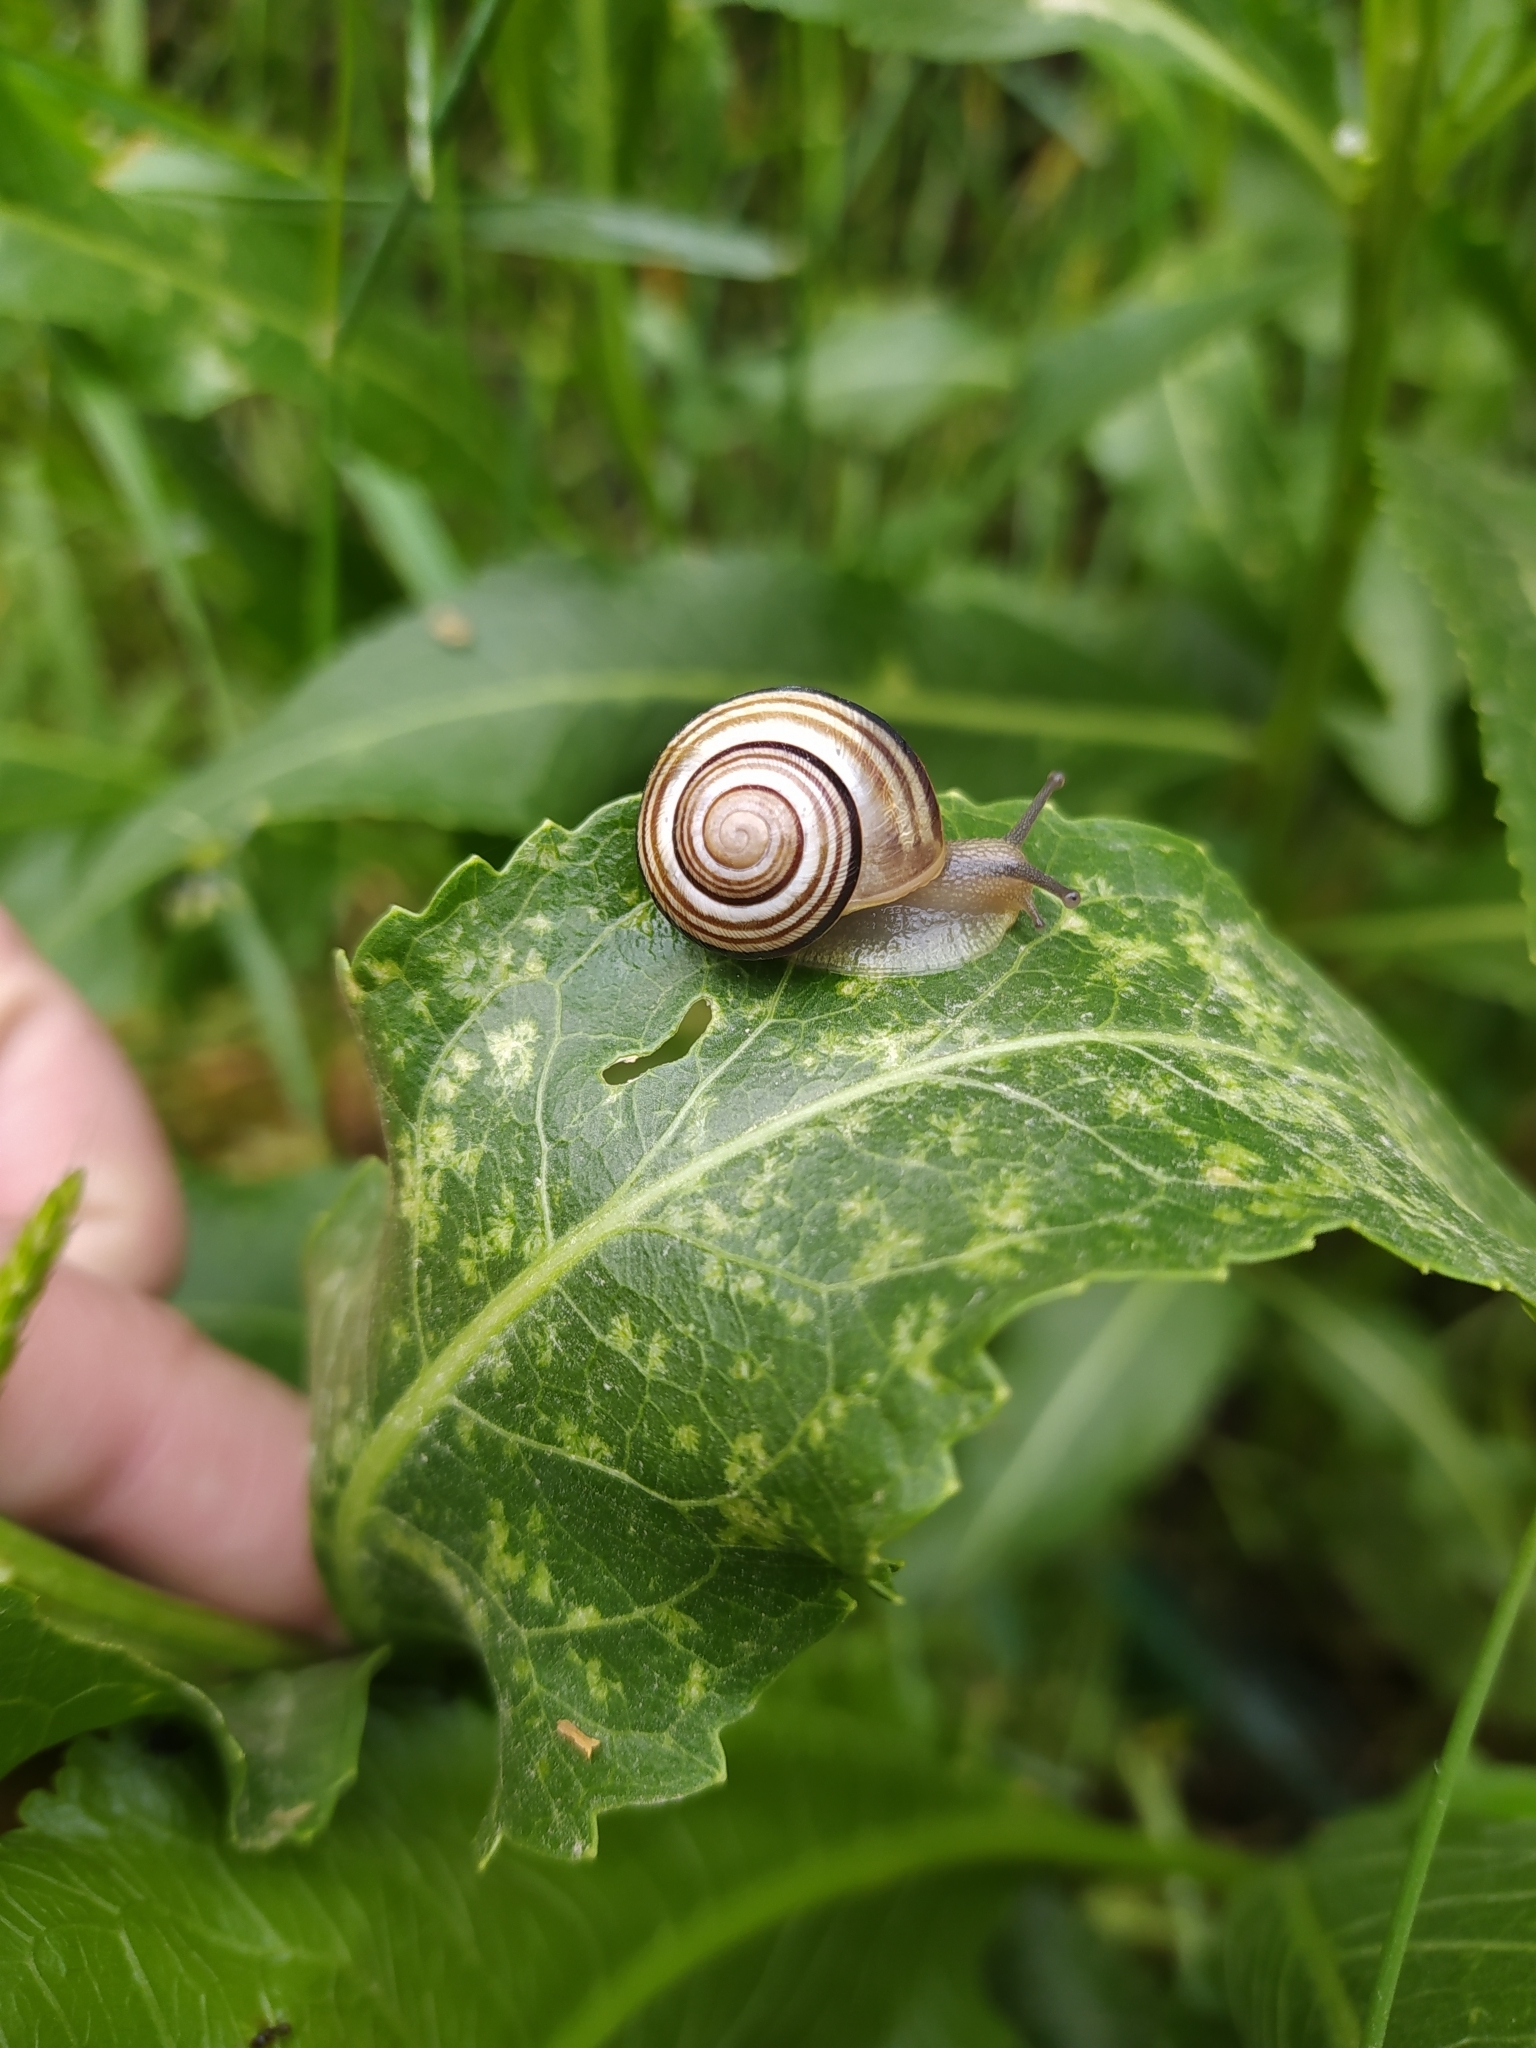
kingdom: Animalia
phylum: Mollusca
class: Gastropoda
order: Stylommatophora
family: Helicidae
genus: Caucasotachea
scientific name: Caucasotachea vindobonensis
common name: European helicid land snail
